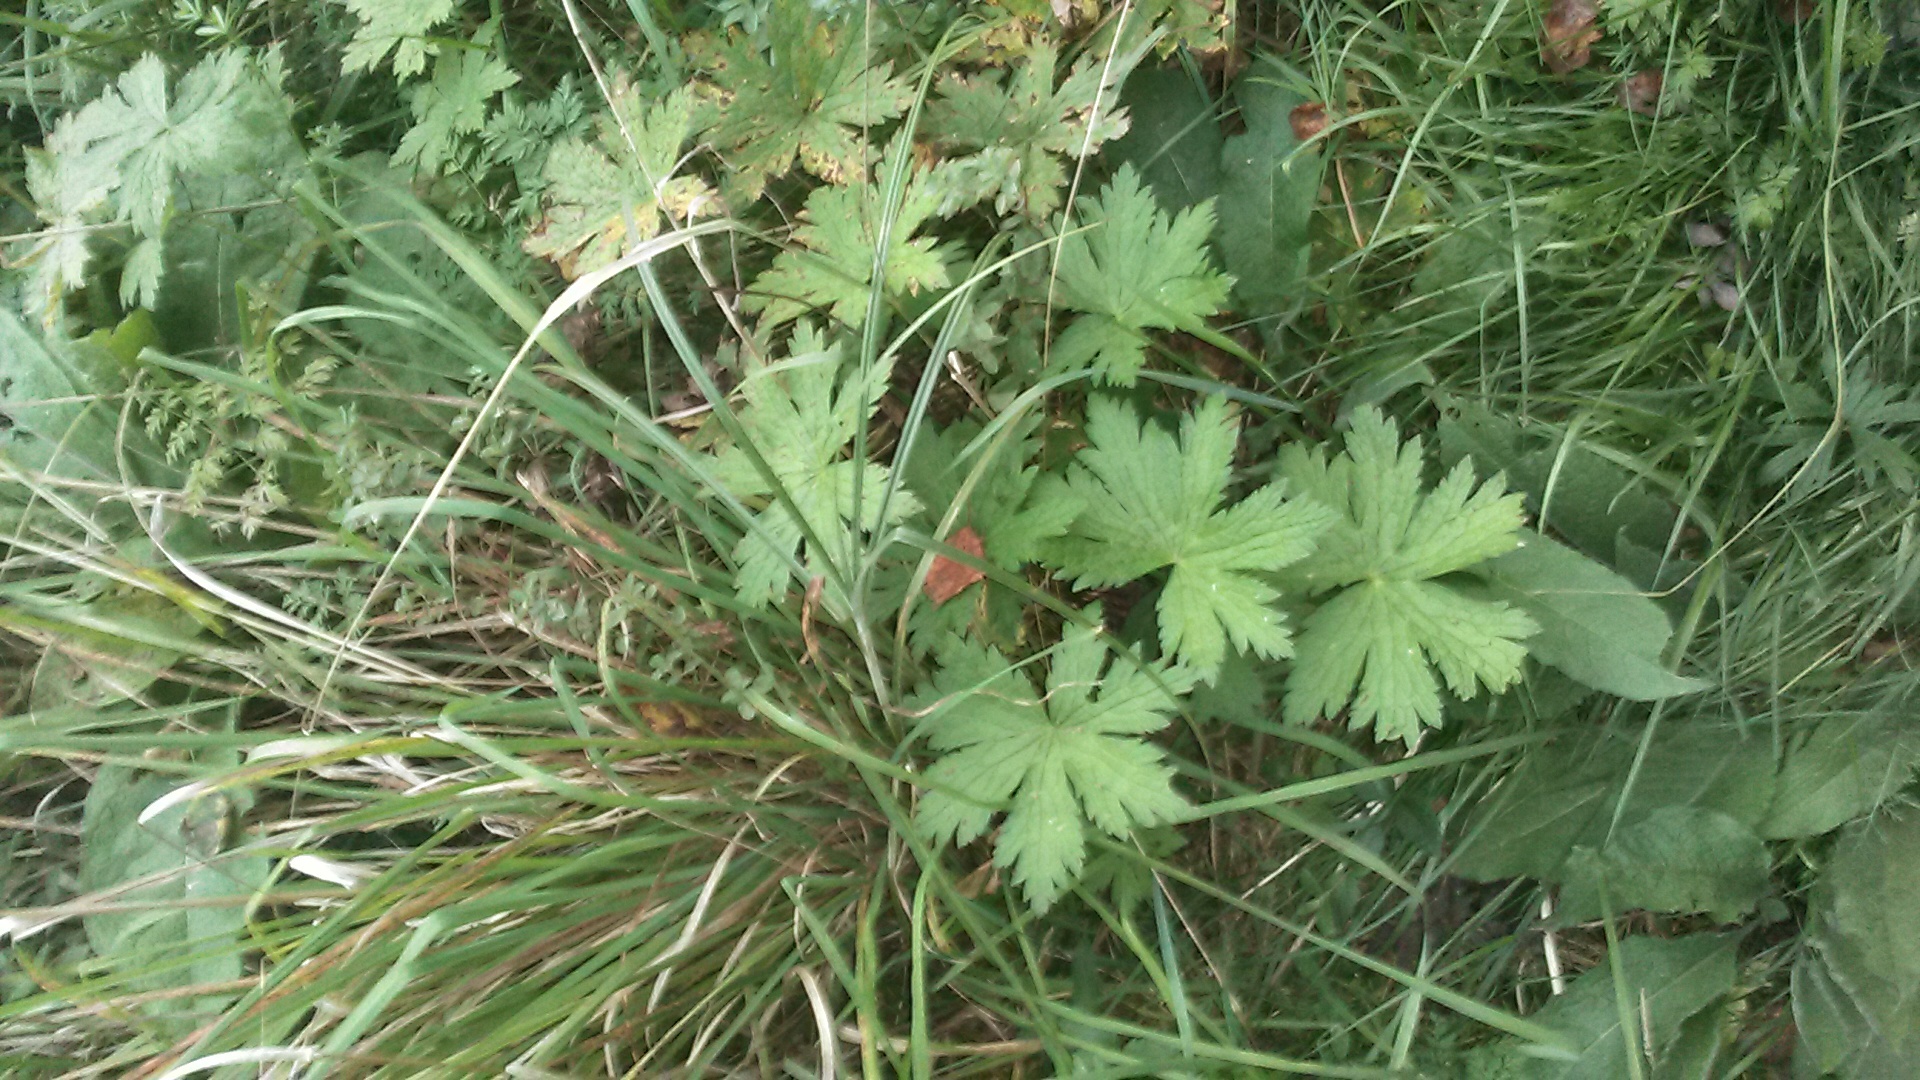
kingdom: Plantae
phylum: Tracheophyta
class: Magnoliopsida
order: Geraniales
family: Geraniaceae
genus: Geranium
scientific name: Geranium pratense
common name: Meadow crane's-bill
